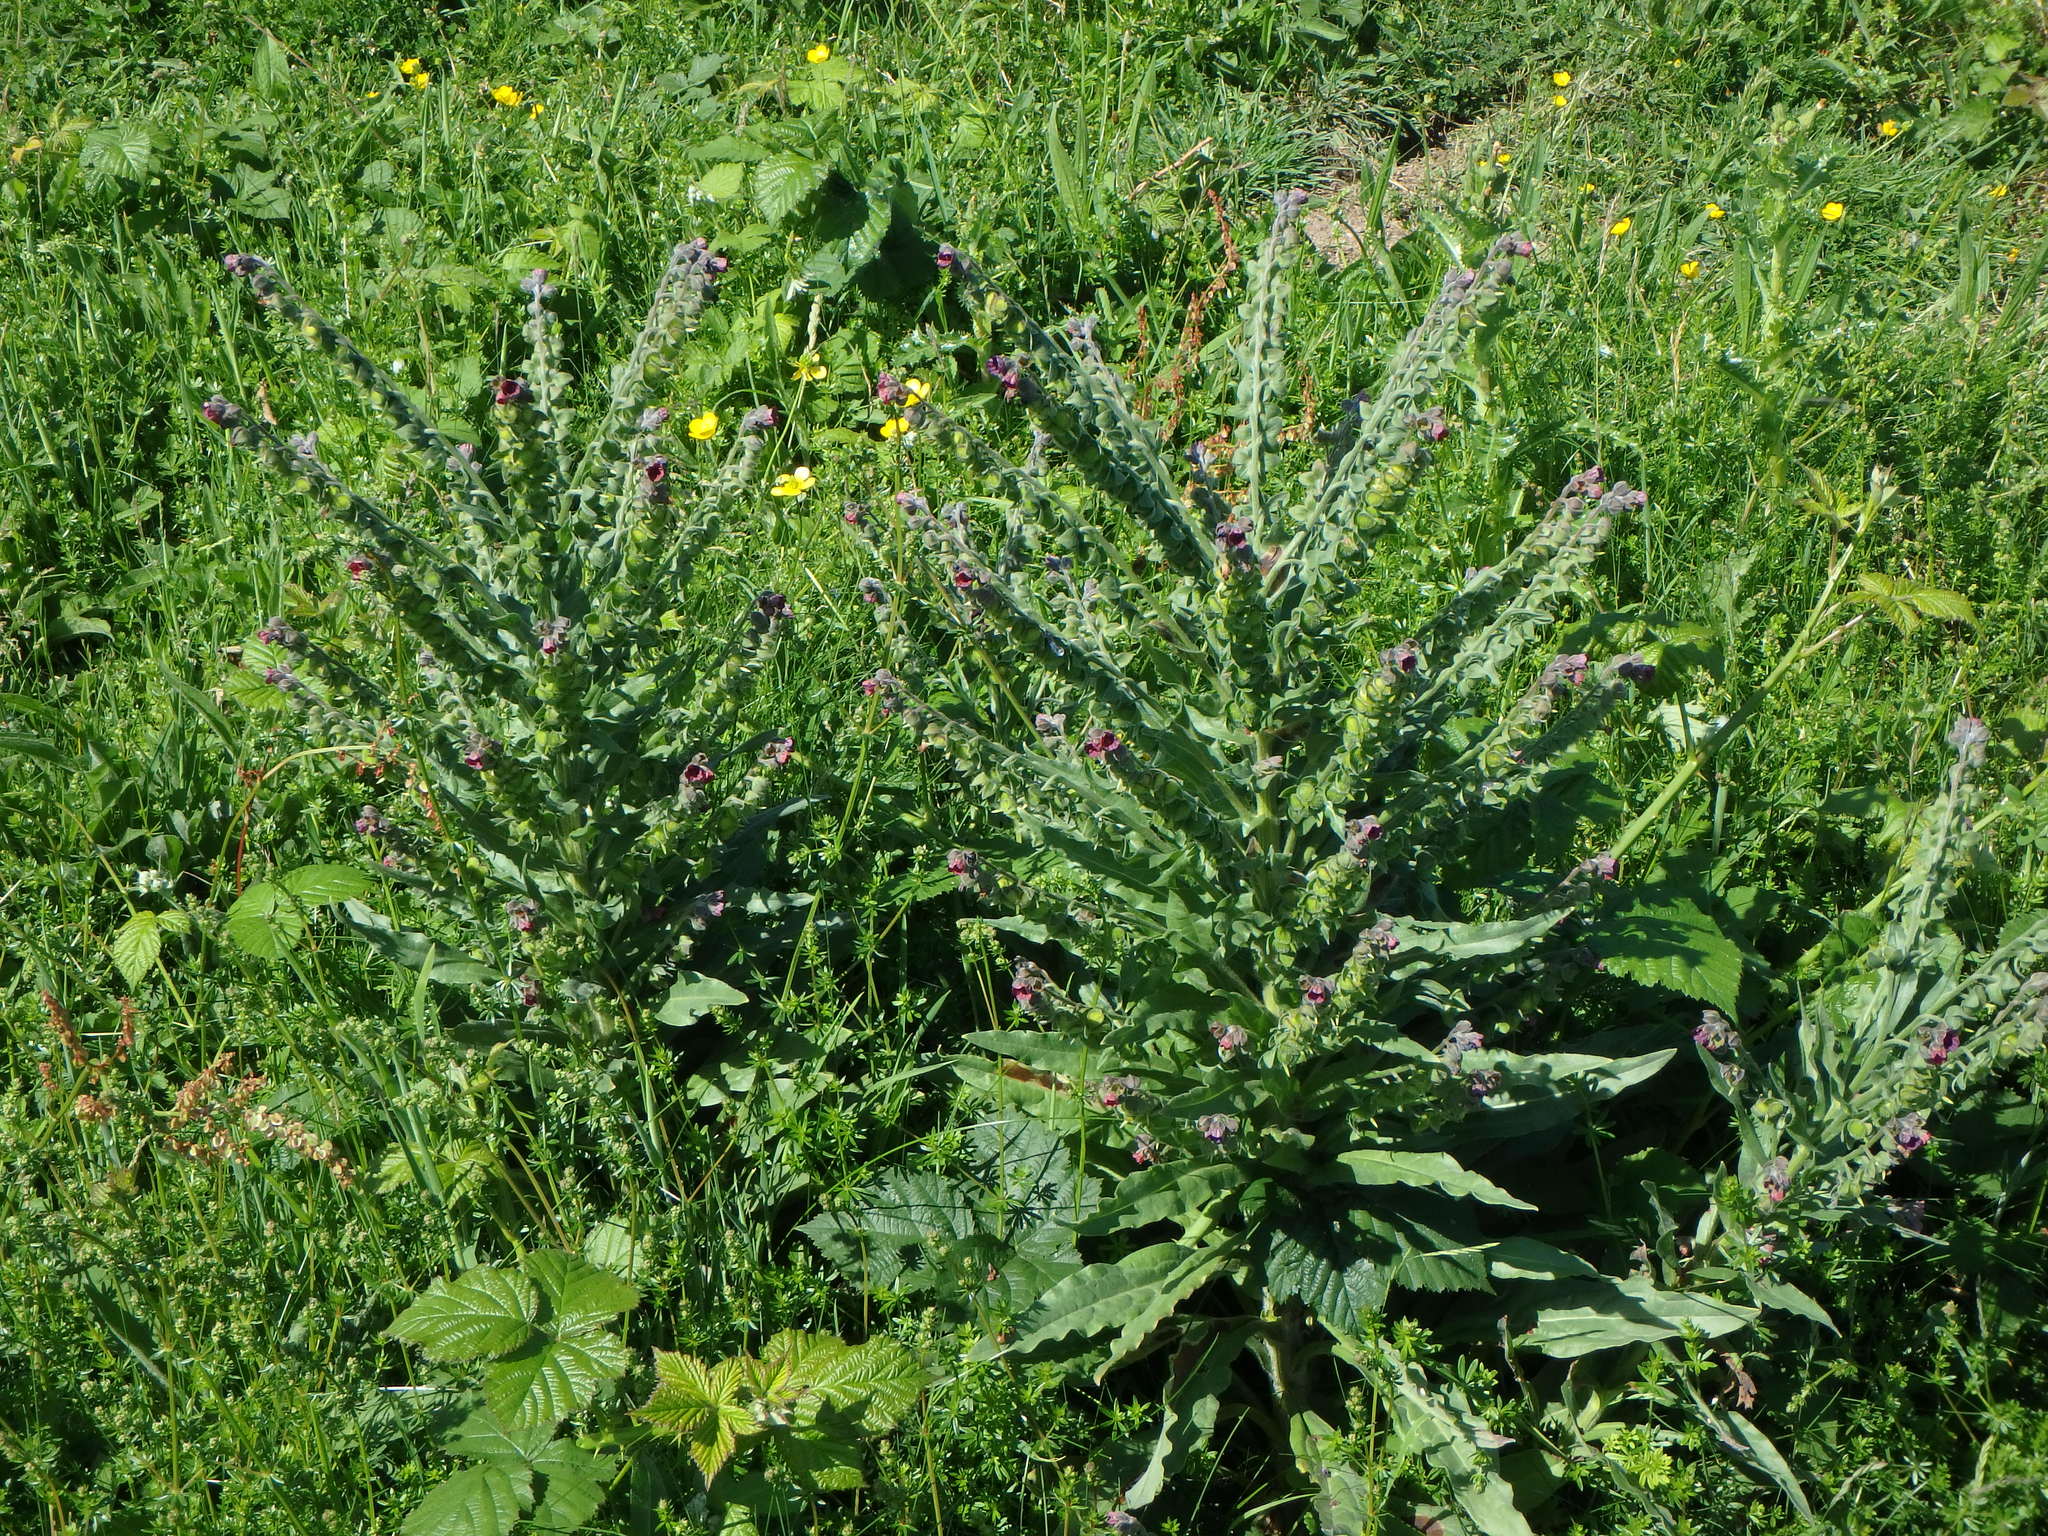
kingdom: Plantae
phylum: Tracheophyta
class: Magnoliopsida
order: Boraginales
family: Boraginaceae
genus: Cynoglossum
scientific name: Cynoglossum officinale
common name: Hound's-tongue
